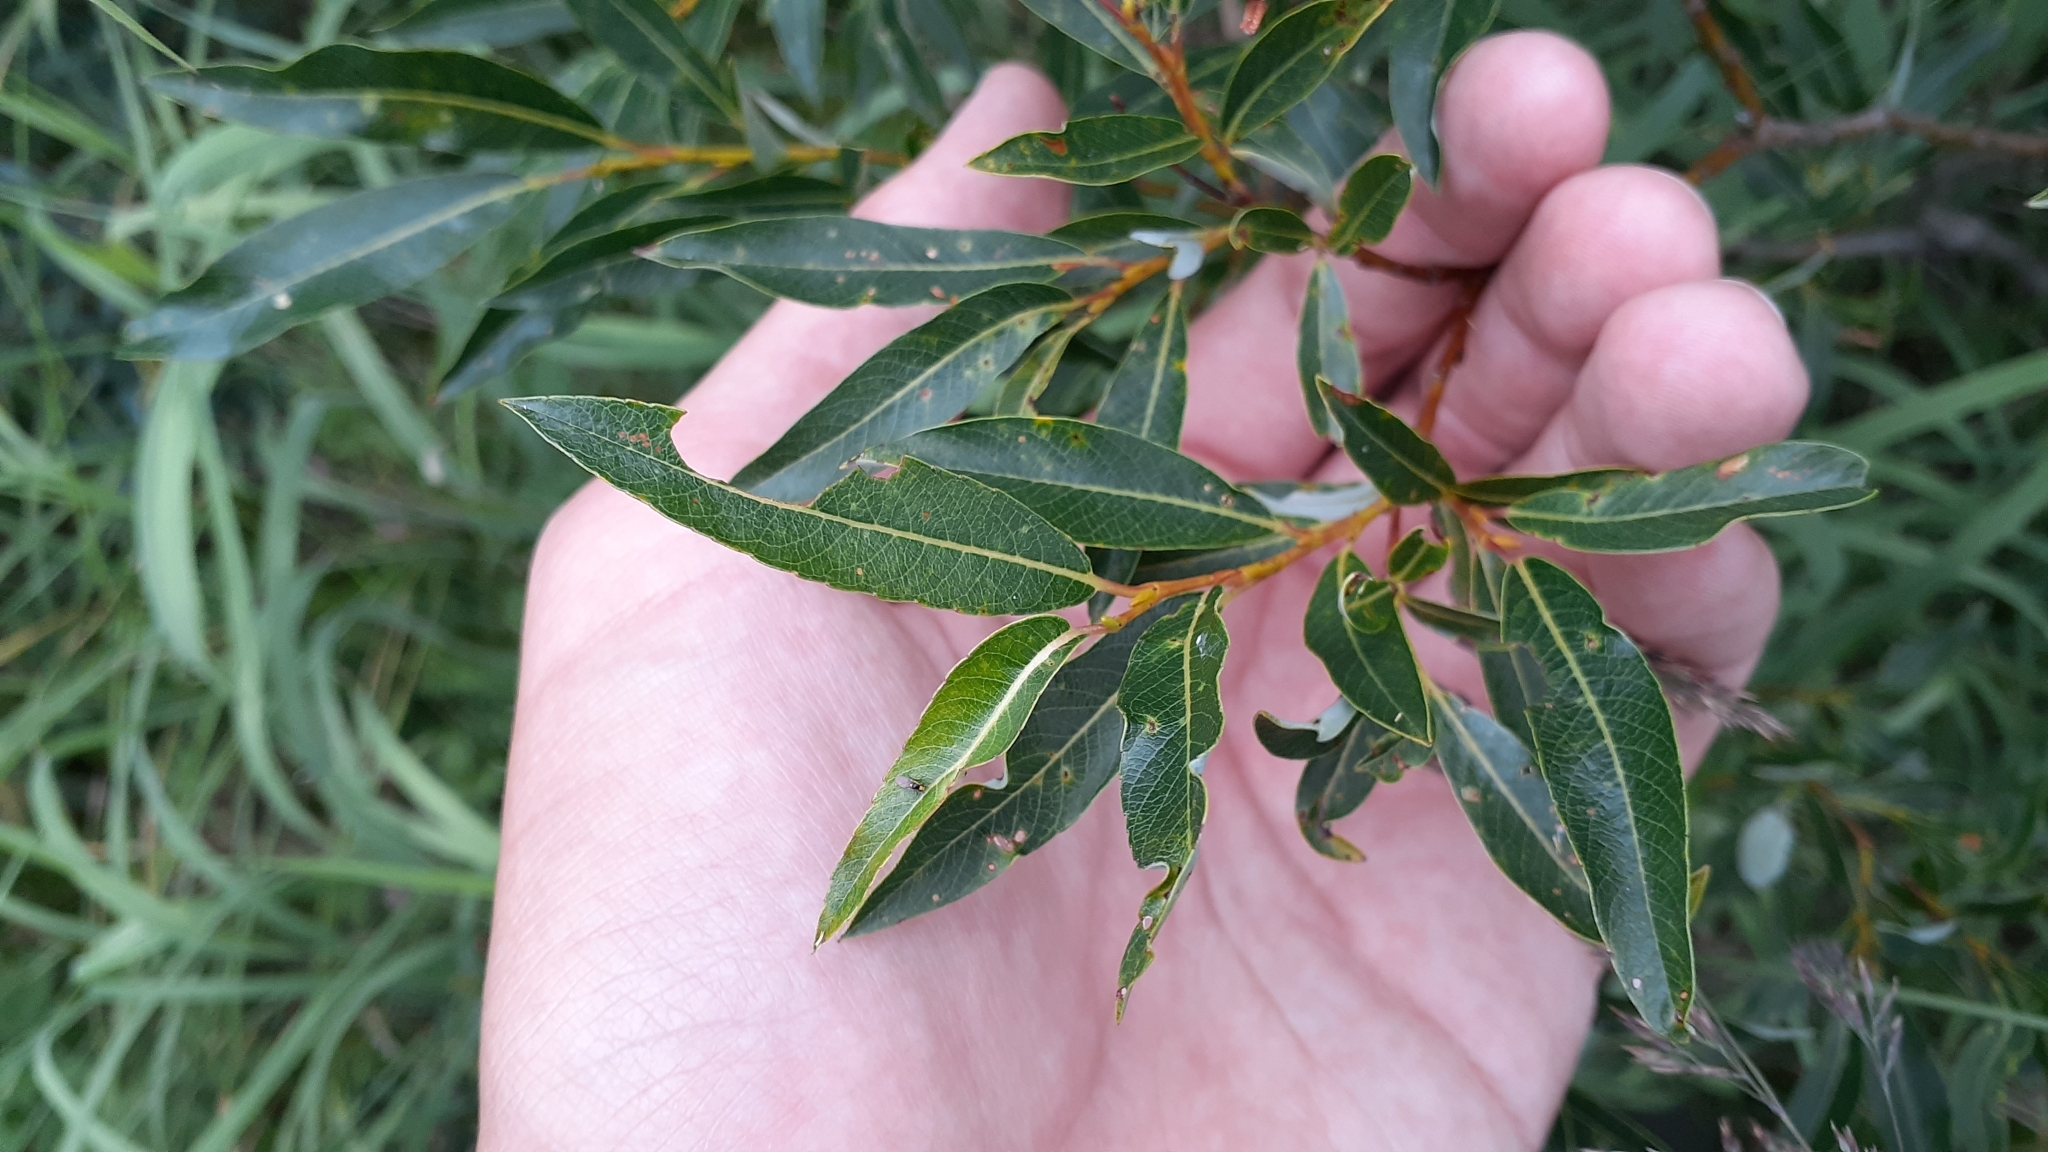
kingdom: Plantae
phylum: Tracheophyta
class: Magnoliopsida
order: Malpighiales
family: Salicaceae
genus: Salix
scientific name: Salix planifolia
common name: Mountain willow
